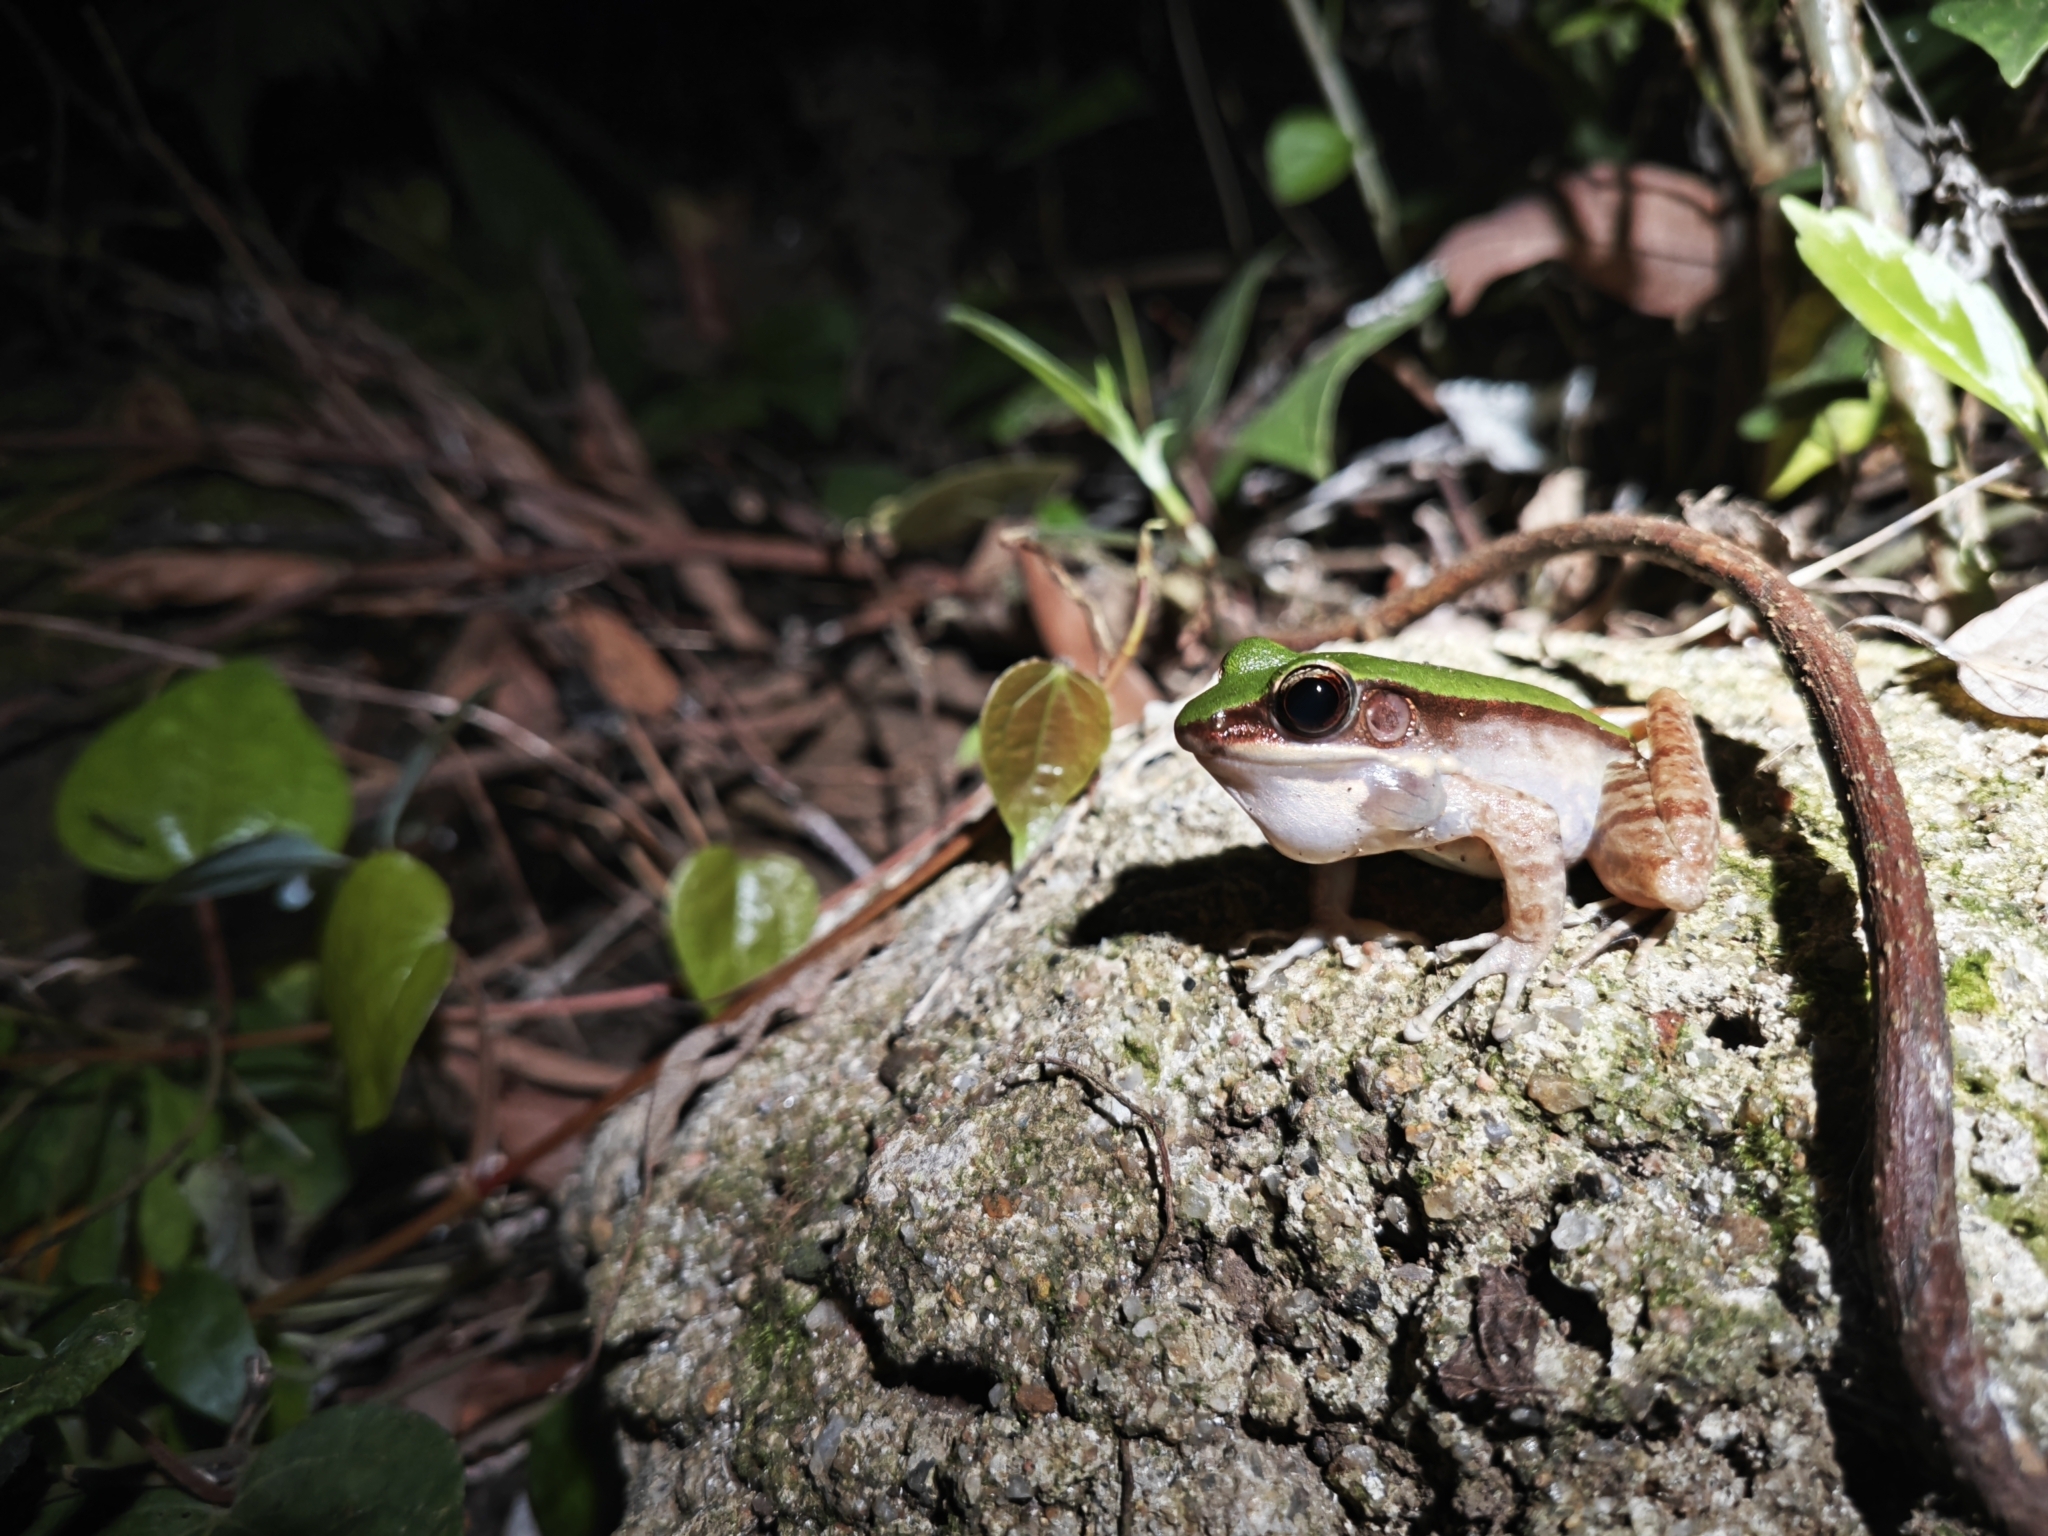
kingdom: Animalia
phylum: Chordata
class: Amphibia
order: Anura
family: Ranidae
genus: Odorrana
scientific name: Odorrana graminea
